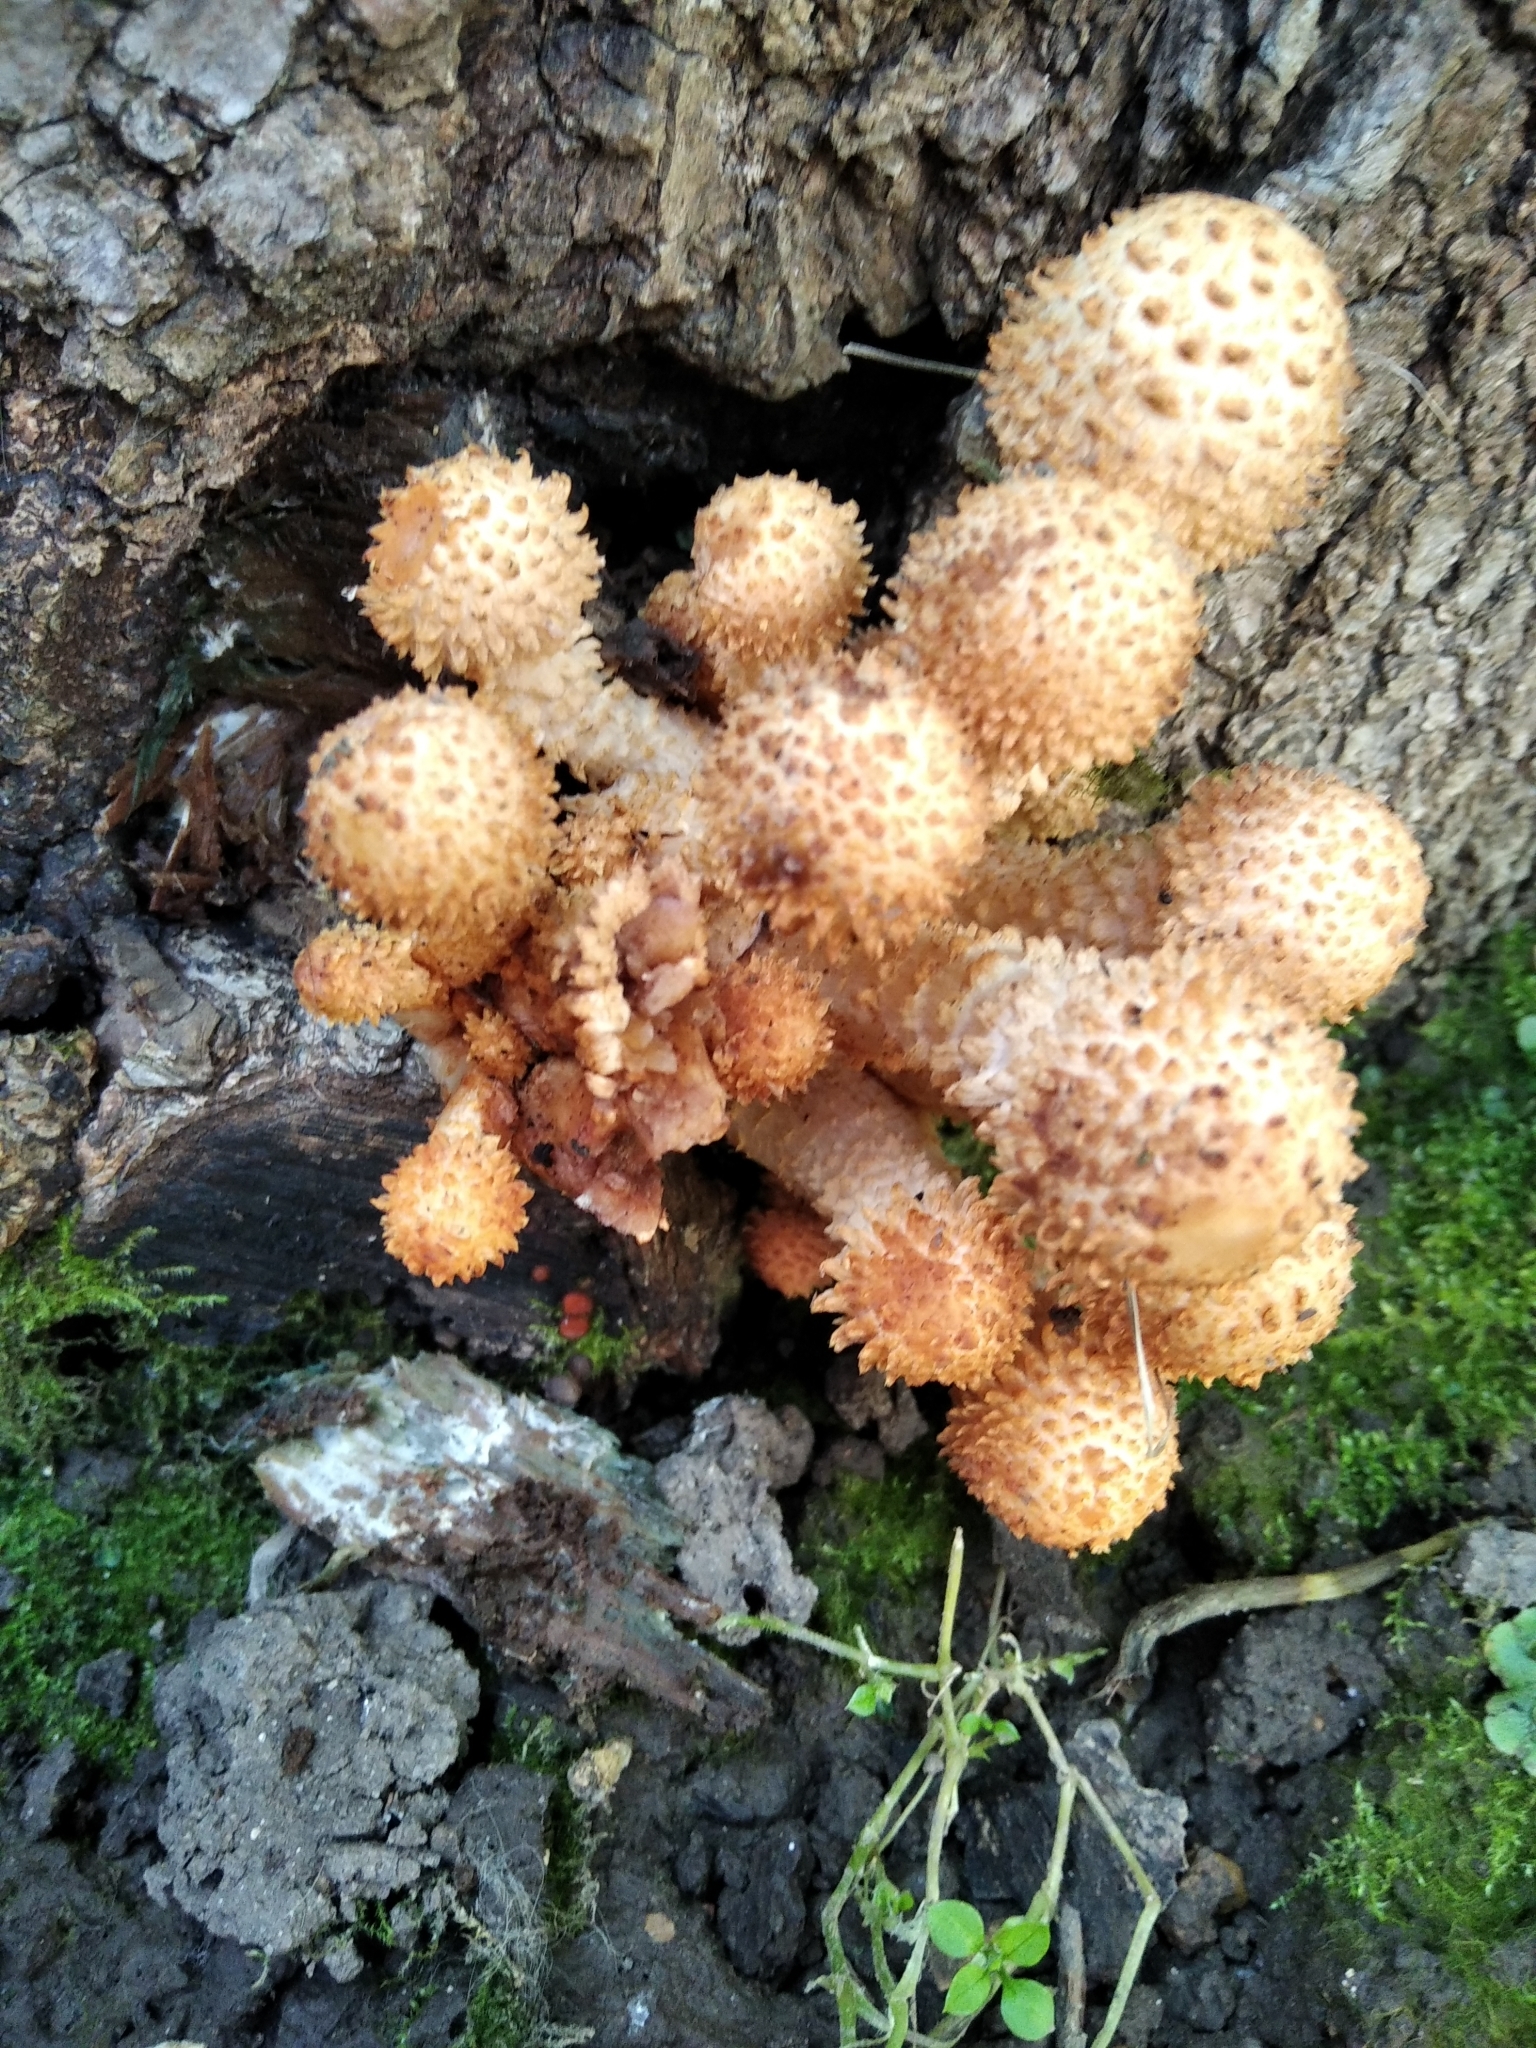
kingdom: Fungi
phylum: Basidiomycota
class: Agaricomycetes
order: Agaricales
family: Strophariaceae
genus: Pholiota
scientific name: Pholiota squarrosa
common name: Shaggy pholiota
